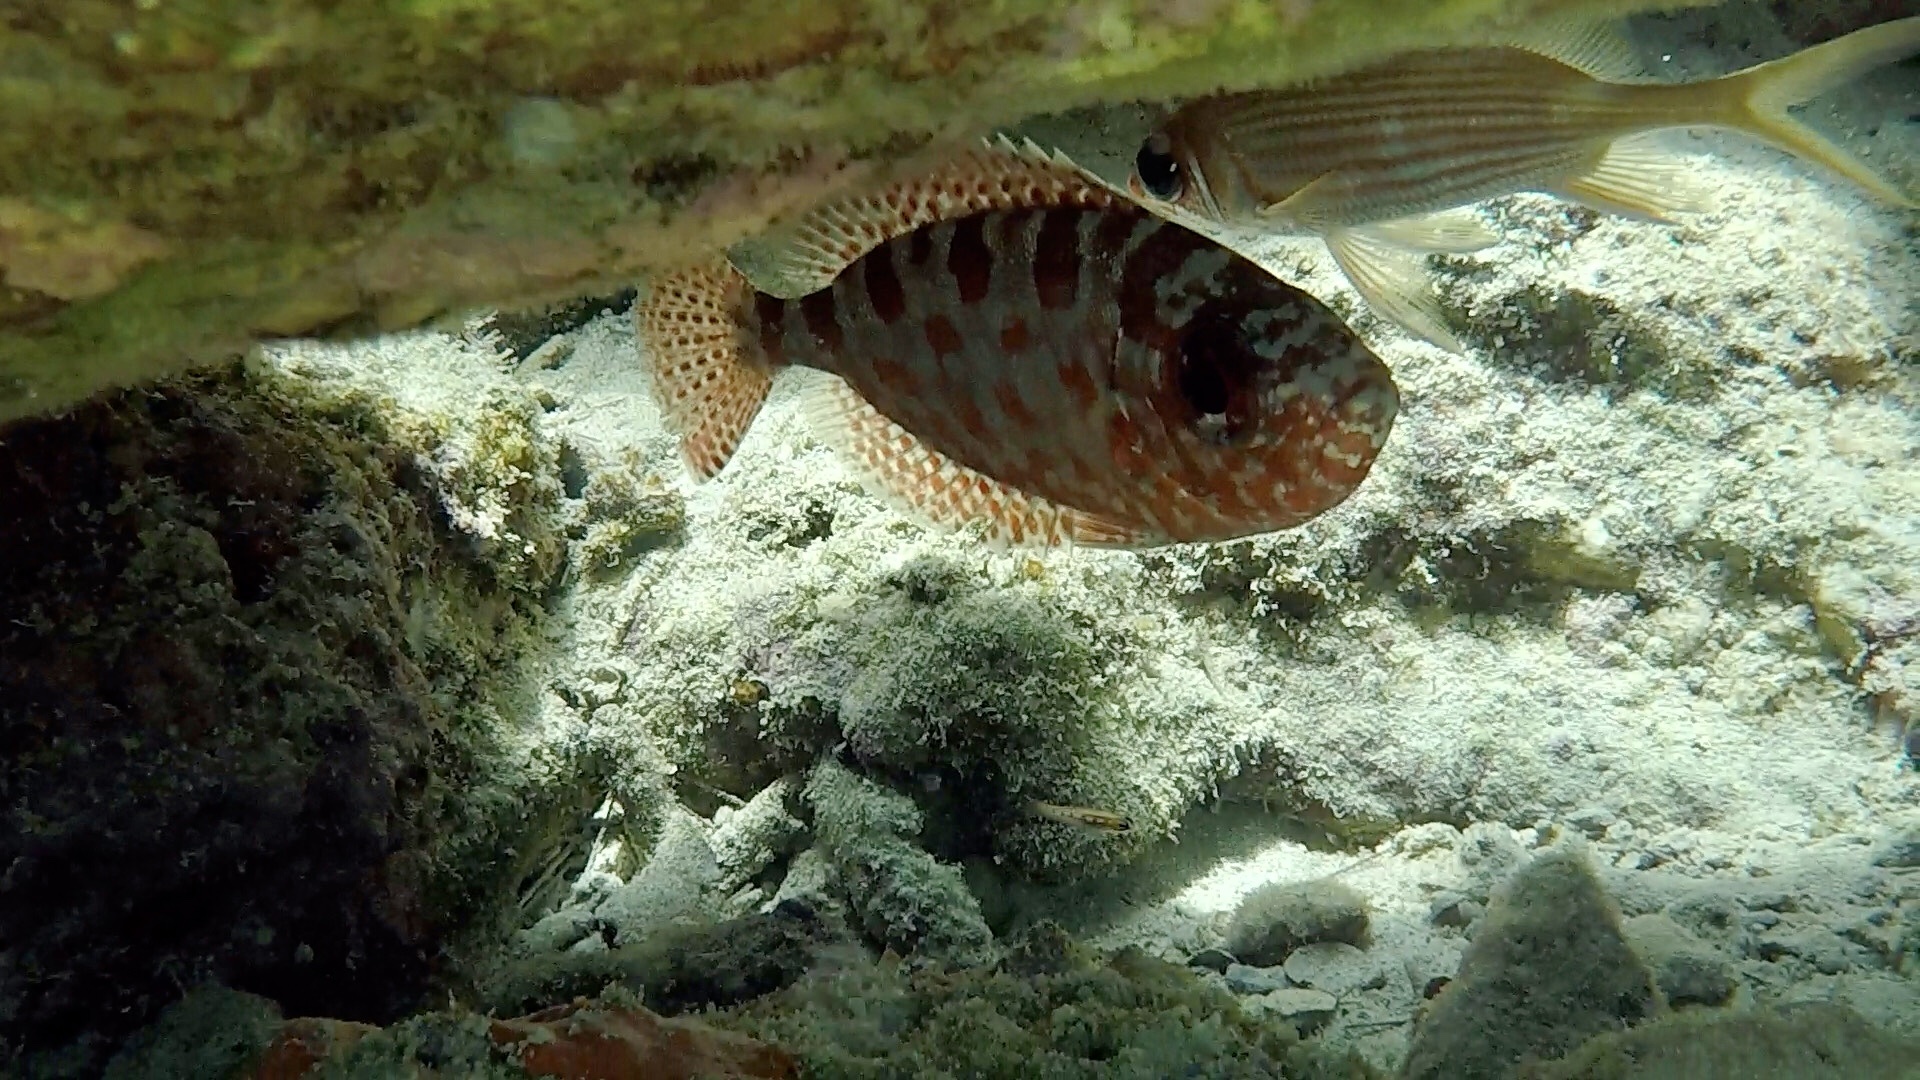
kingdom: Animalia
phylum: Chordata
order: Perciformes
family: Priacanthidae
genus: Heteropriacanthus
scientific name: Heteropriacanthus cruentatus
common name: Glasseye
